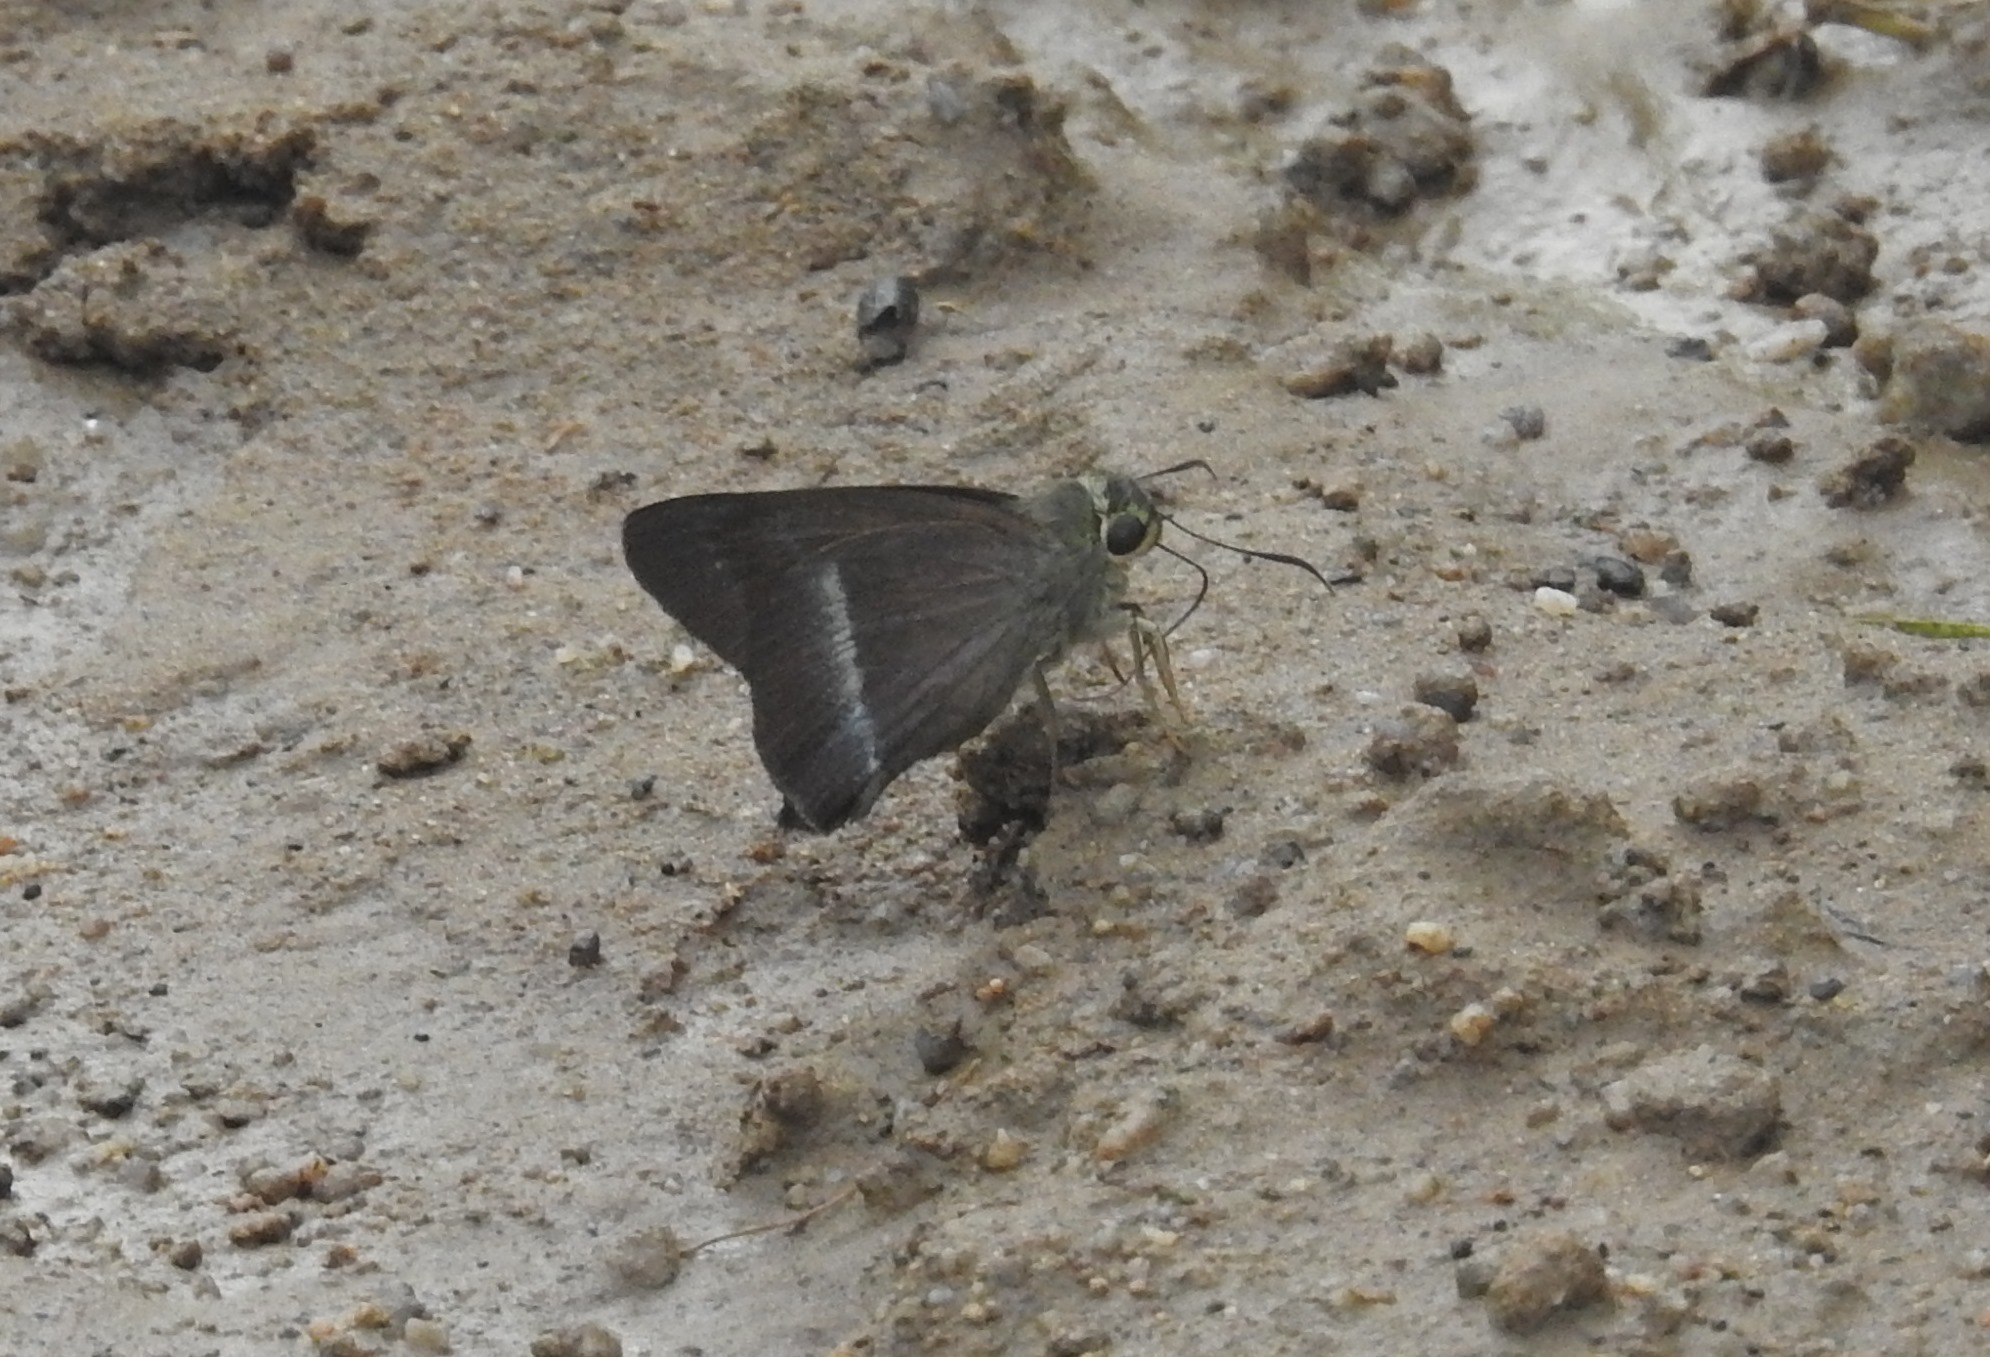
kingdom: Animalia
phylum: Arthropoda
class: Insecta
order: Lepidoptera
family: Hesperiidae
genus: Hasora
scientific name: Hasora chromus
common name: Common banded awl
